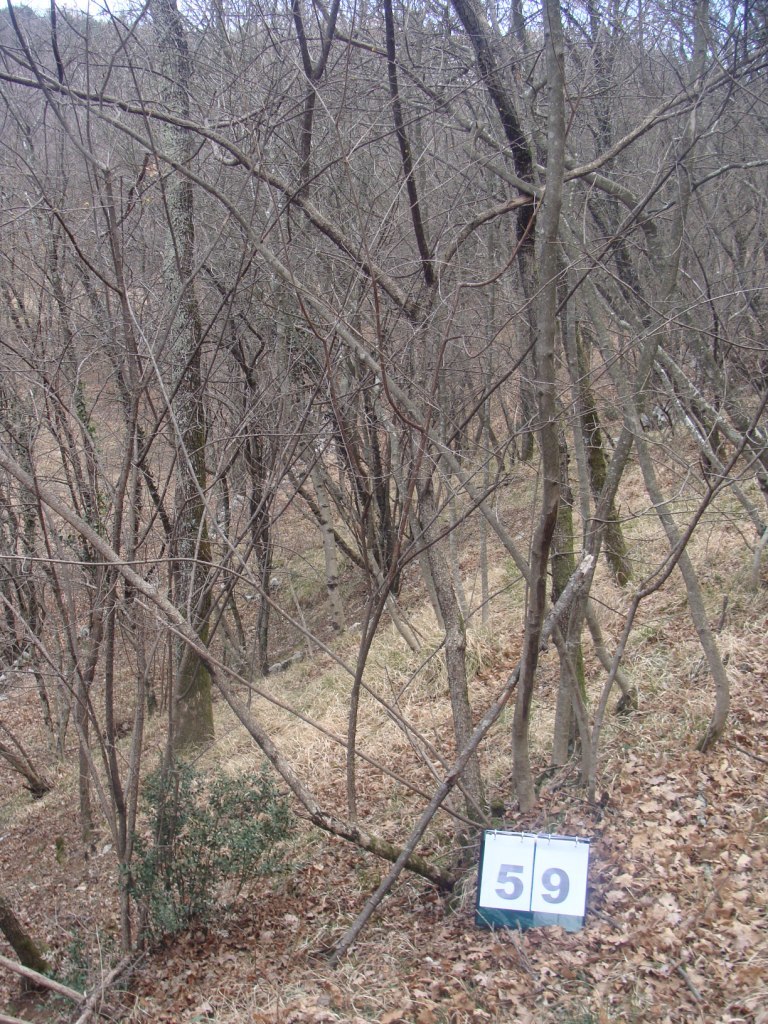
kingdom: Plantae
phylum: Tracheophyta
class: Magnoliopsida
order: Cornales
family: Cornaceae
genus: Cornus
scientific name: Cornus mas
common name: Cornelian-cherry
